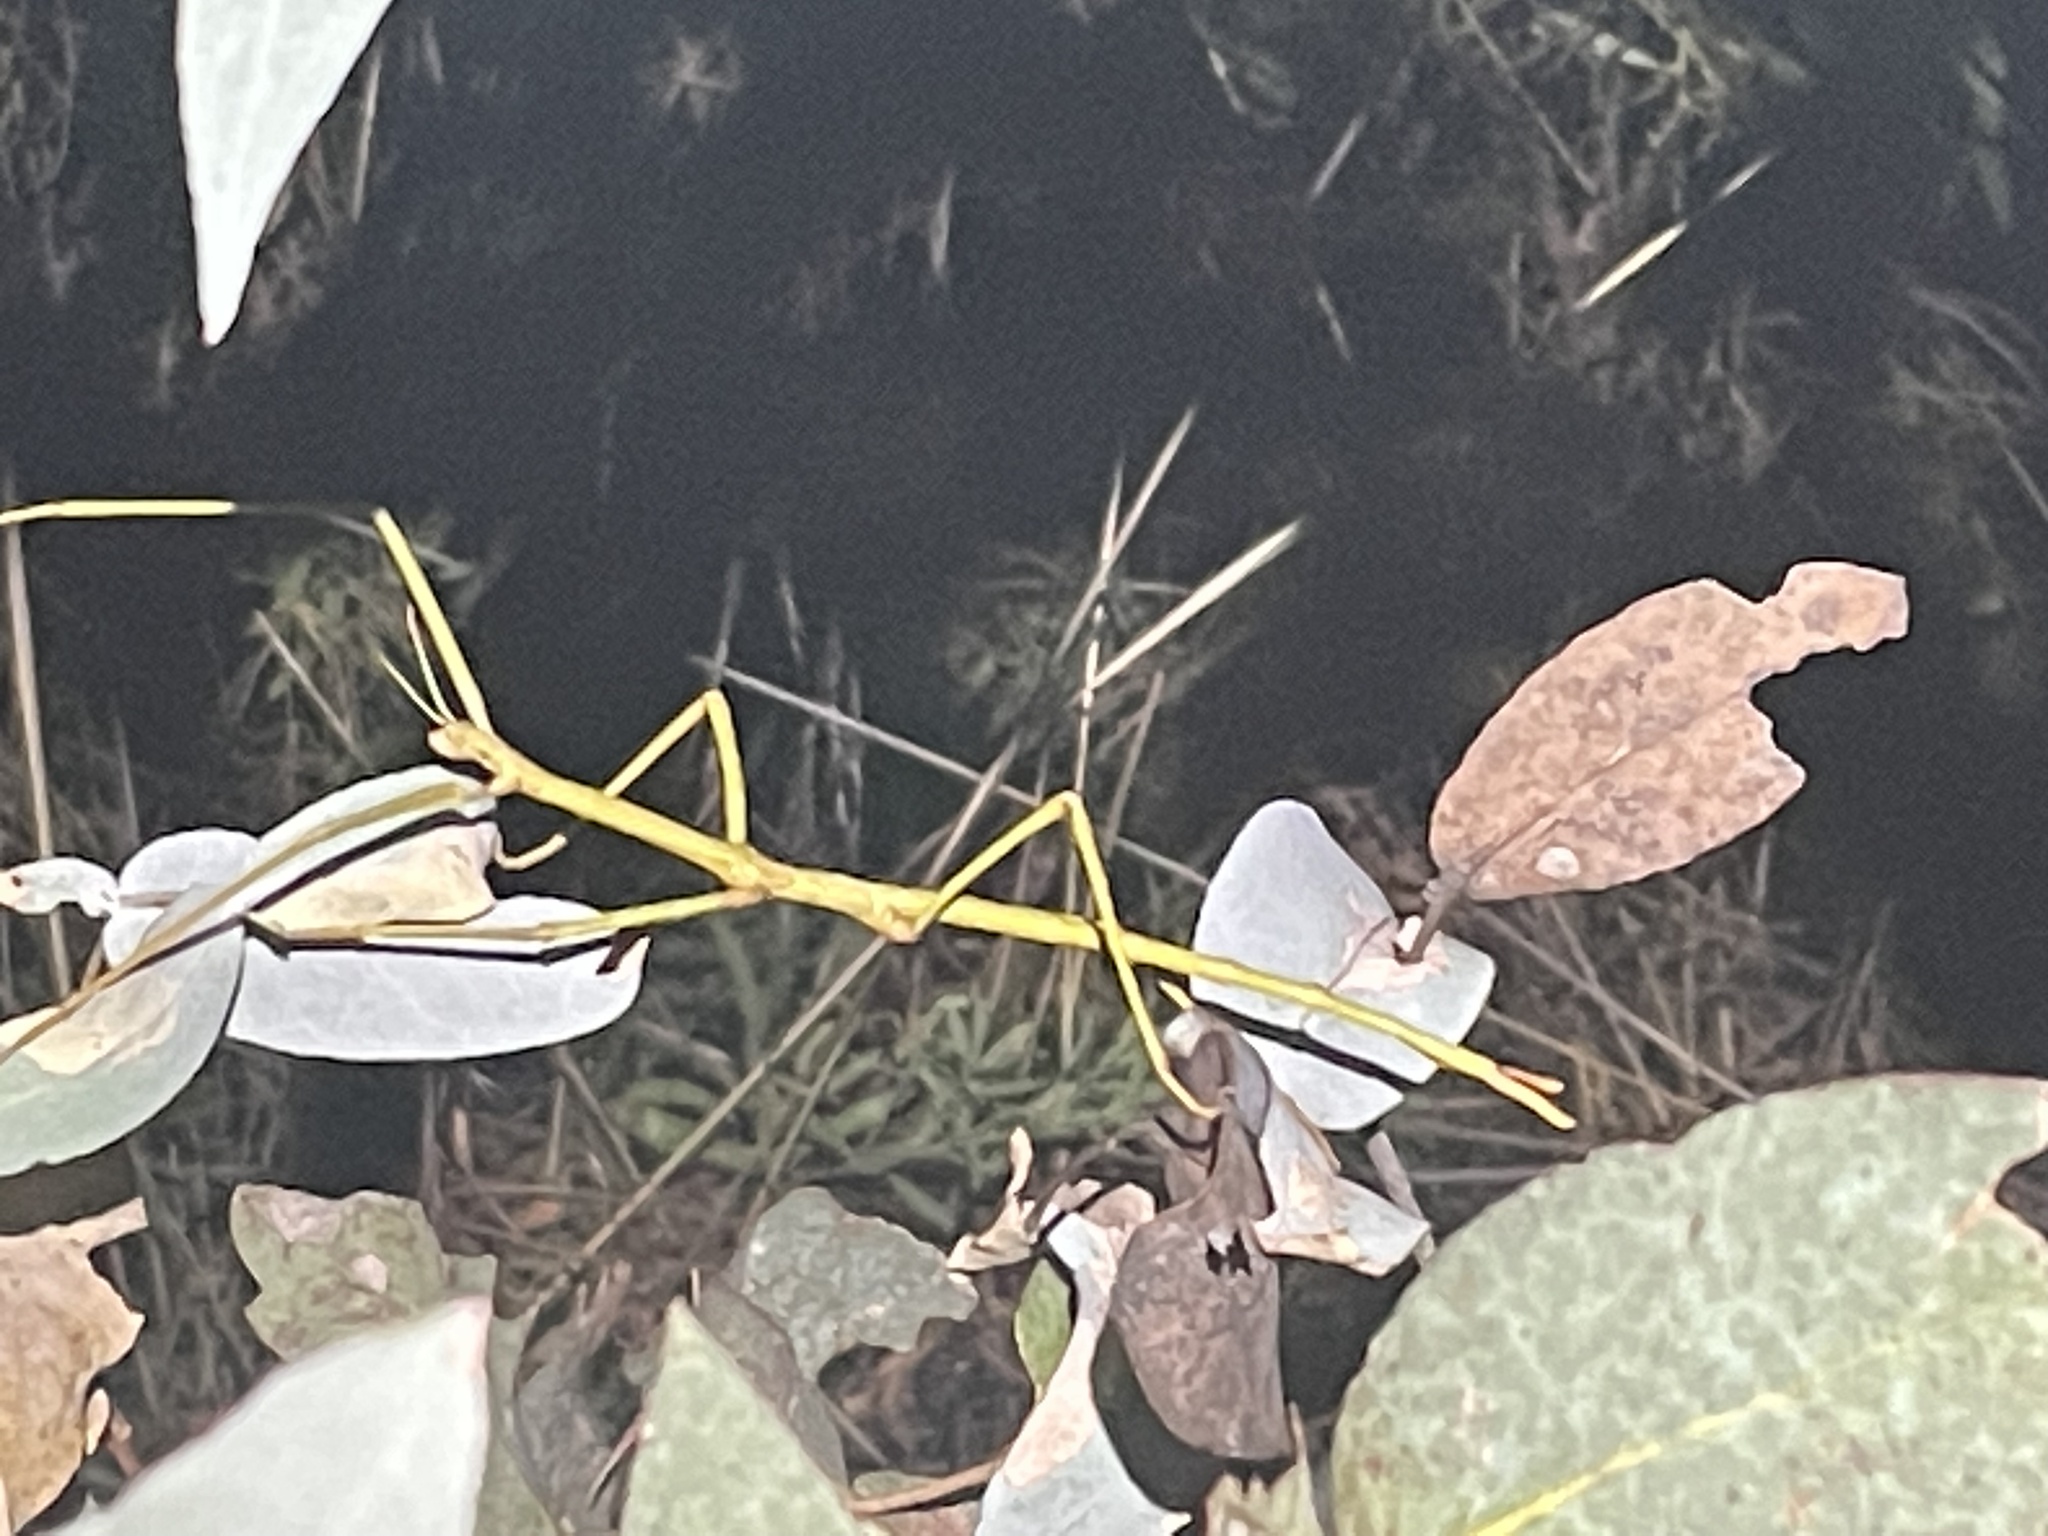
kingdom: Animalia
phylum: Arthropoda
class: Insecta
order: Phasmida
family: Phasmatidae
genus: Ctenomorpha
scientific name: Ctenomorpha marginipennis
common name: Margined-winged stick-insect
